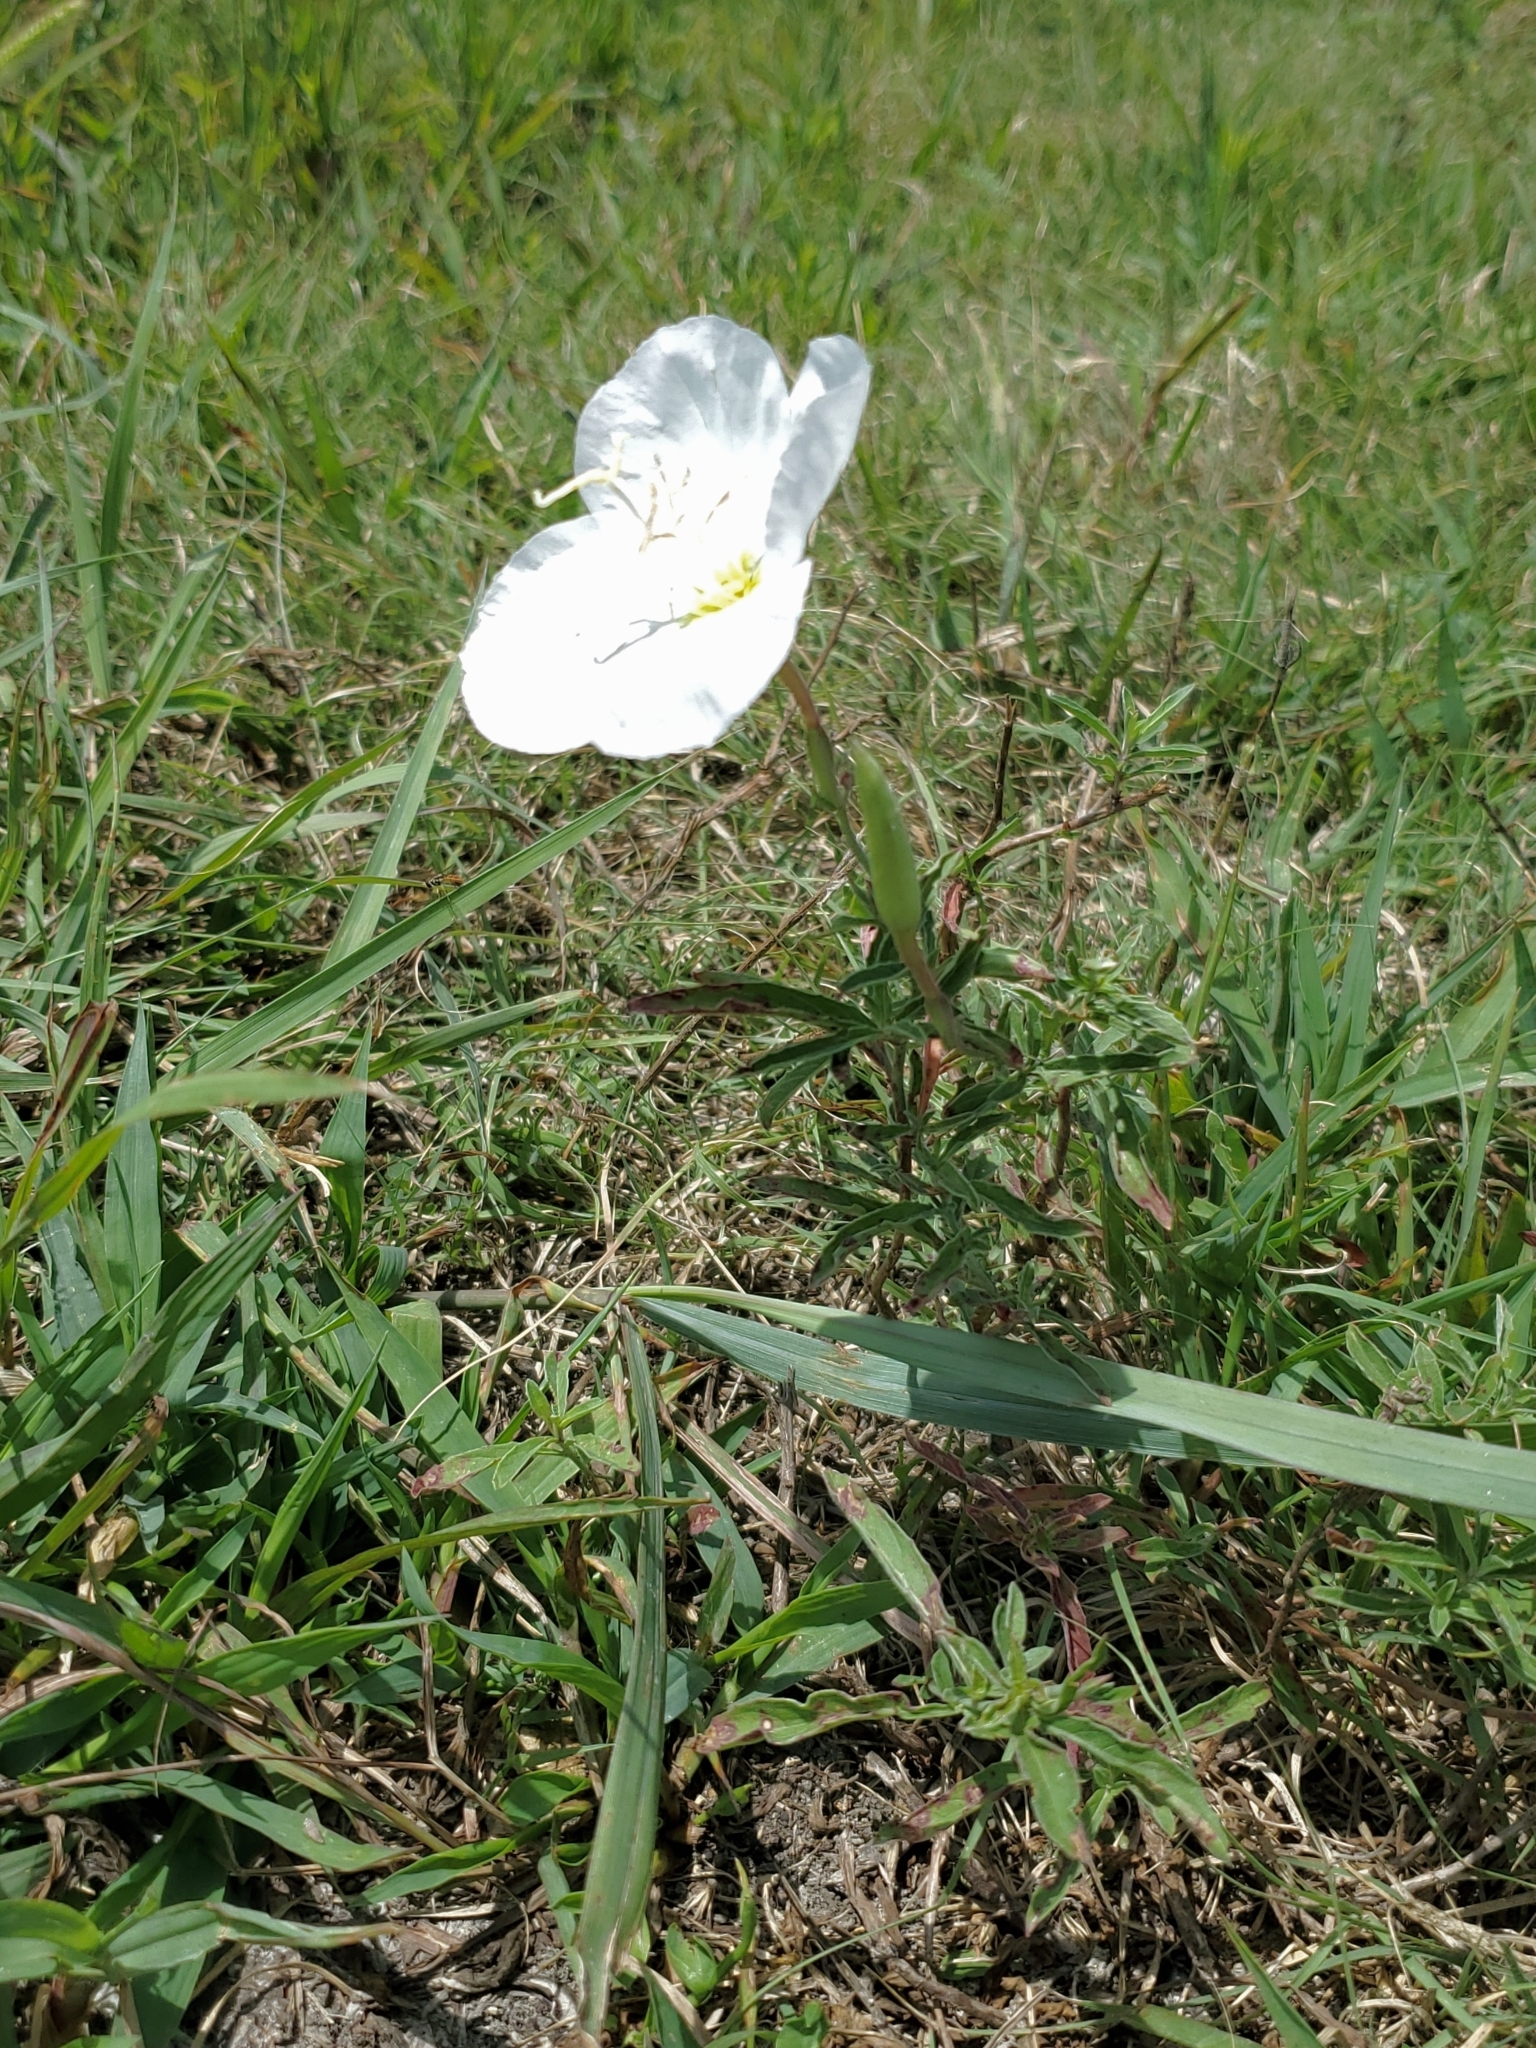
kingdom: Plantae
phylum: Tracheophyta
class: Magnoliopsida
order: Myrtales
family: Onagraceae
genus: Oenothera
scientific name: Oenothera speciosa
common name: White evening-primrose
